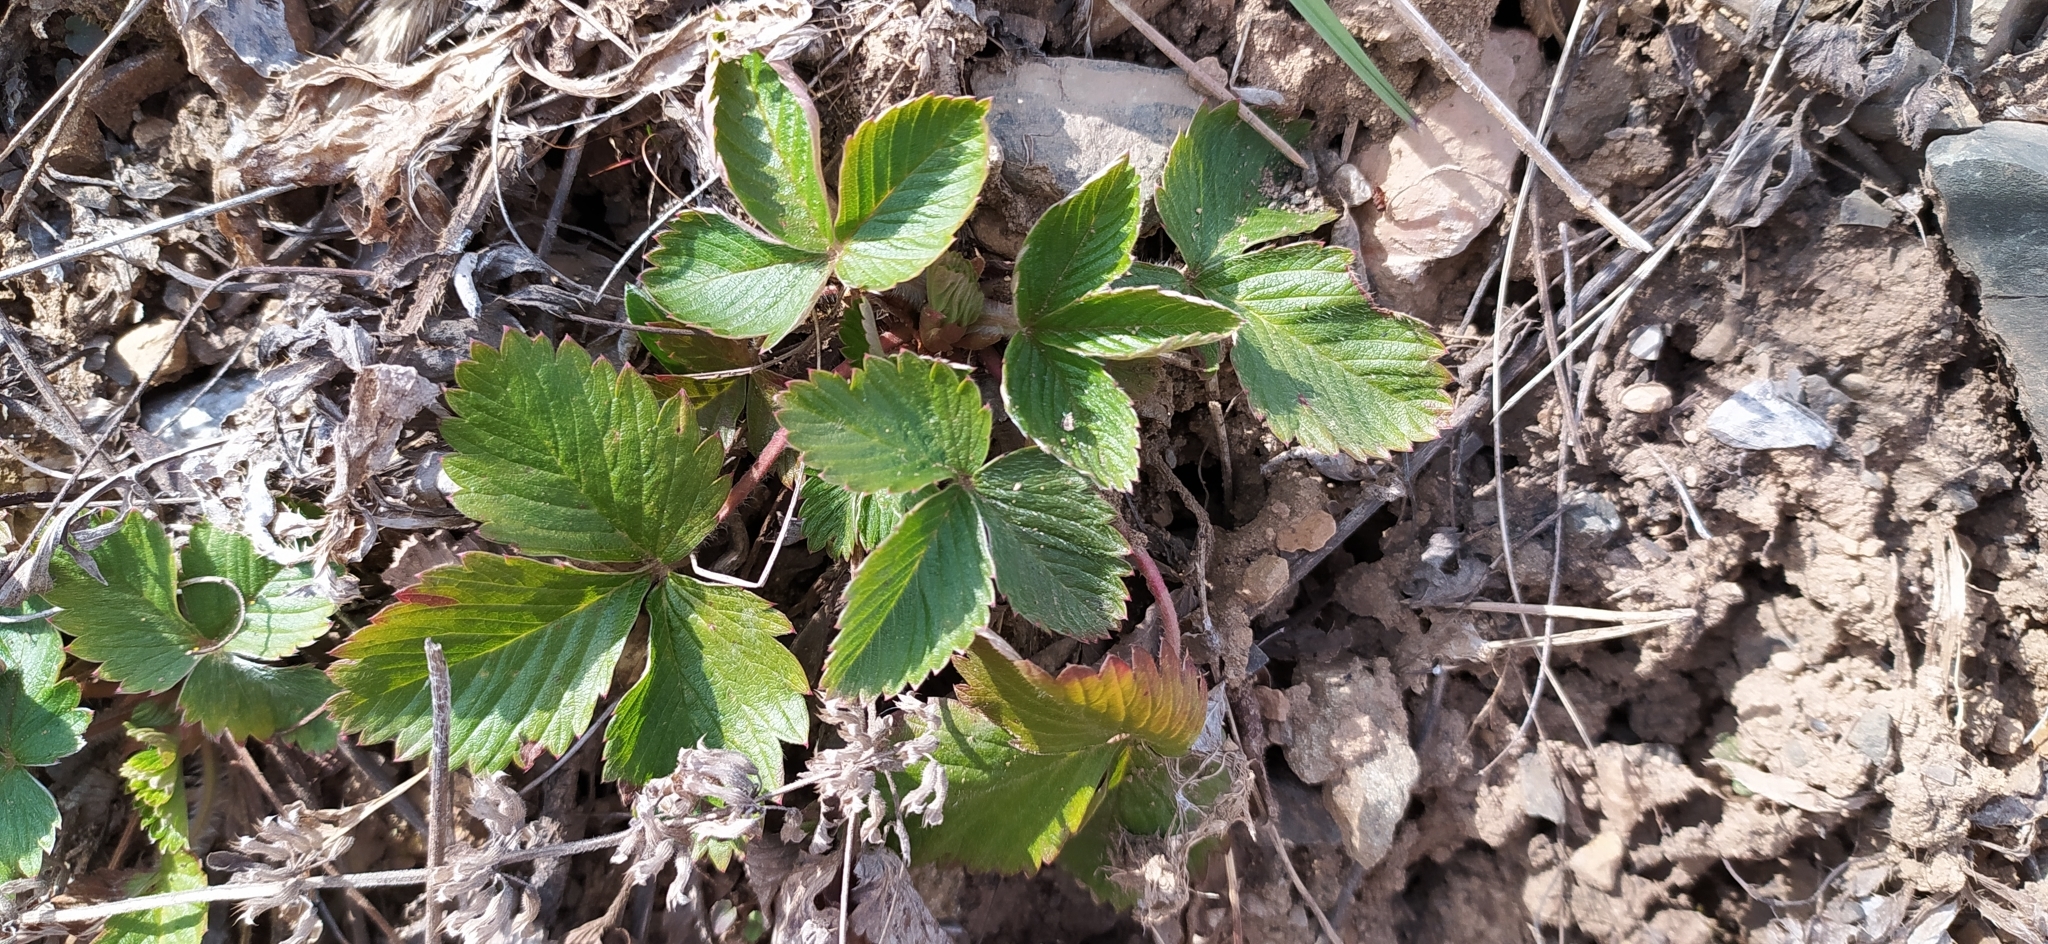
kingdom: Plantae
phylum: Tracheophyta
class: Magnoliopsida
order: Rosales
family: Rosaceae
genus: Fragaria
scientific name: Fragaria vesca
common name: Wild strawberry
